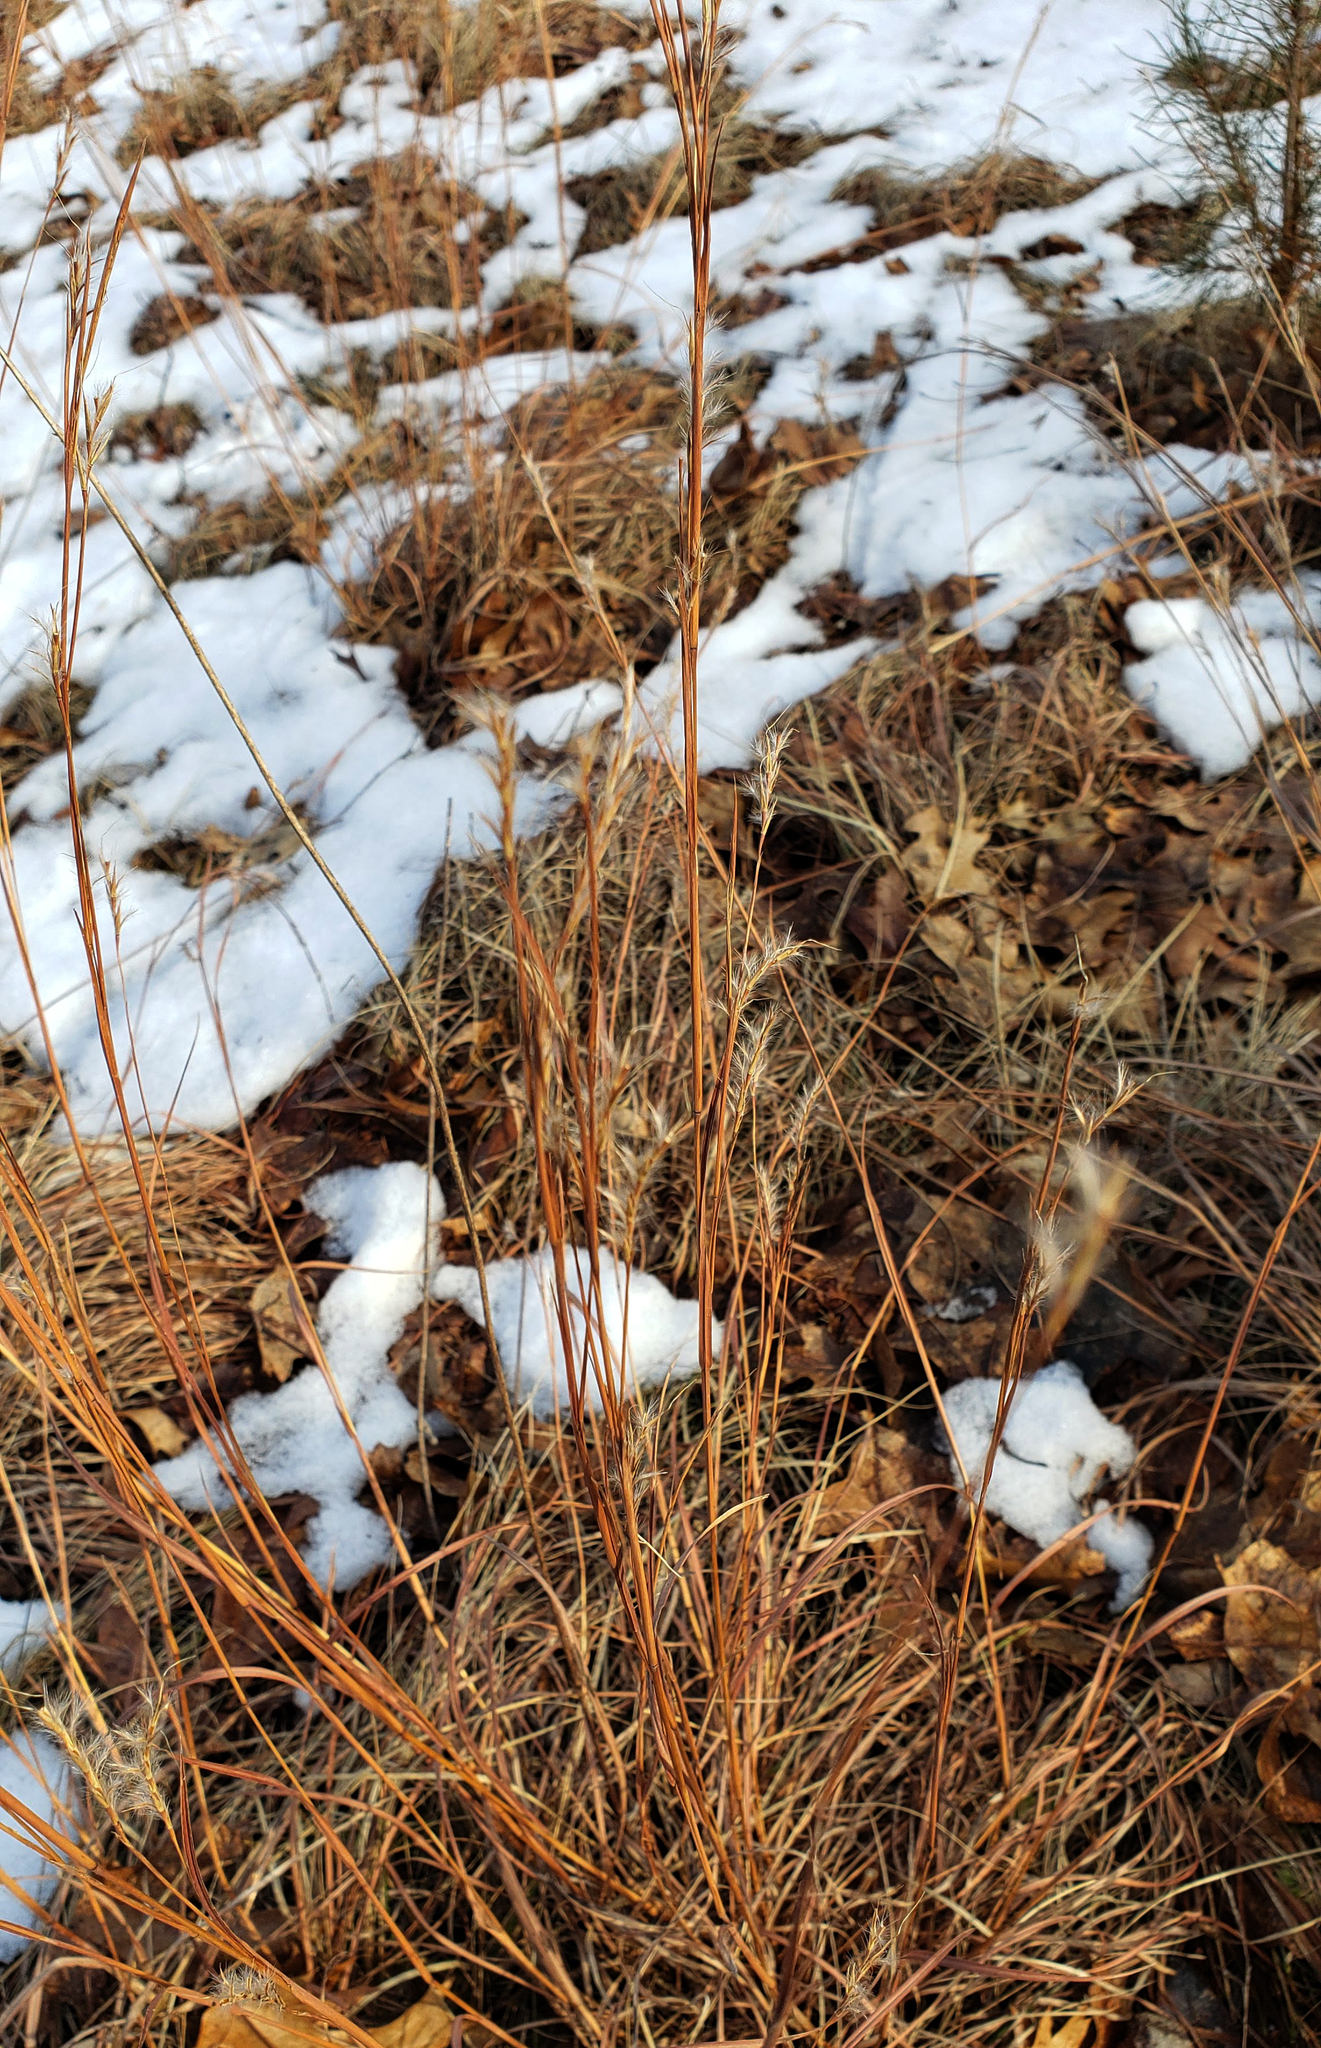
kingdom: Plantae
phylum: Tracheophyta
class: Liliopsida
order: Poales
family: Poaceae
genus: Schizachyrium
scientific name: Schizachyrium scoparium
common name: Little bluestem
